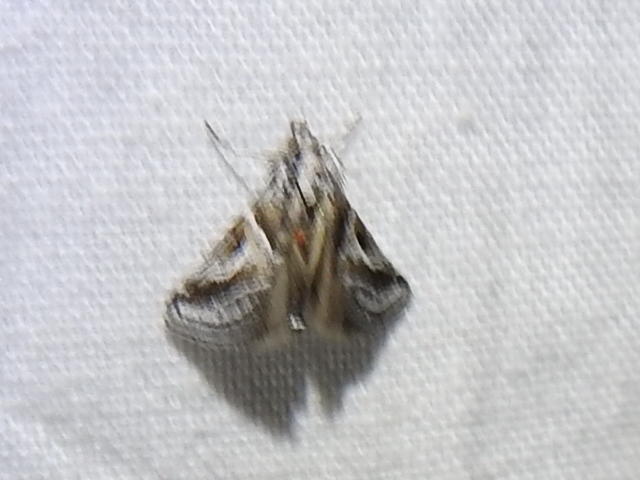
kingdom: Animalia
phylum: Arthropoda
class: Insecta
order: Lepidoptera
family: Pyralidae
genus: Alpheias
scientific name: Alpheias Decaturia pectinalis
